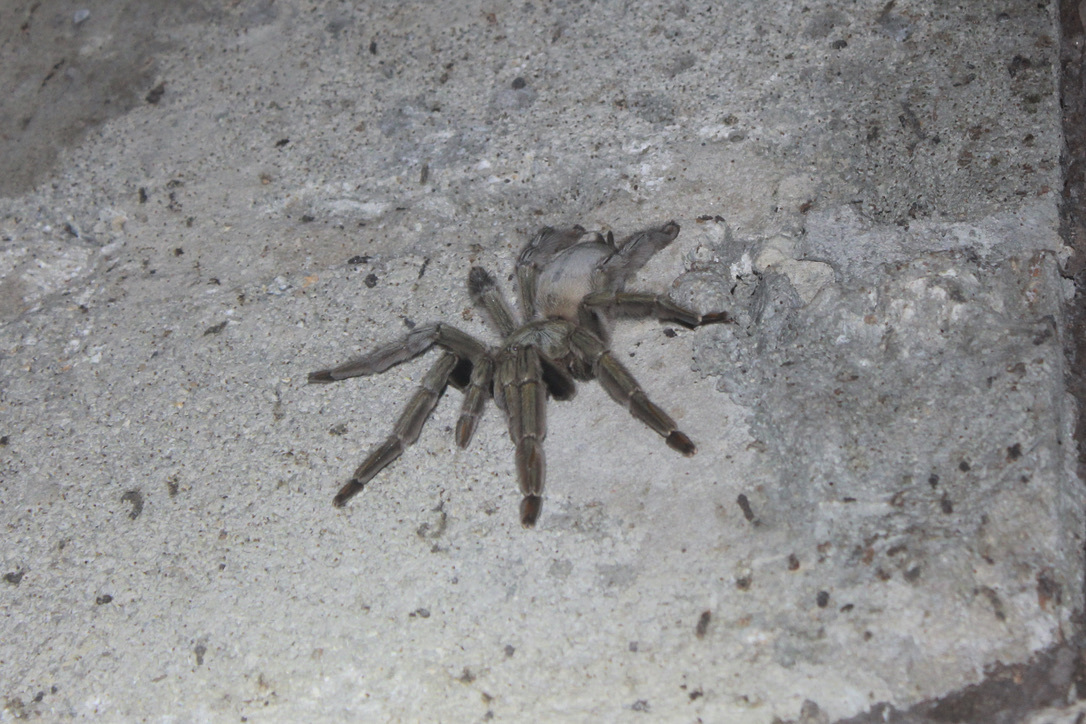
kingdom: Animalia
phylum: Arthropoda
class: Arachnida
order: Araneae
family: Theraphosidae
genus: Psalmopoeus
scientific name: Psalmopoeus cambridgei
